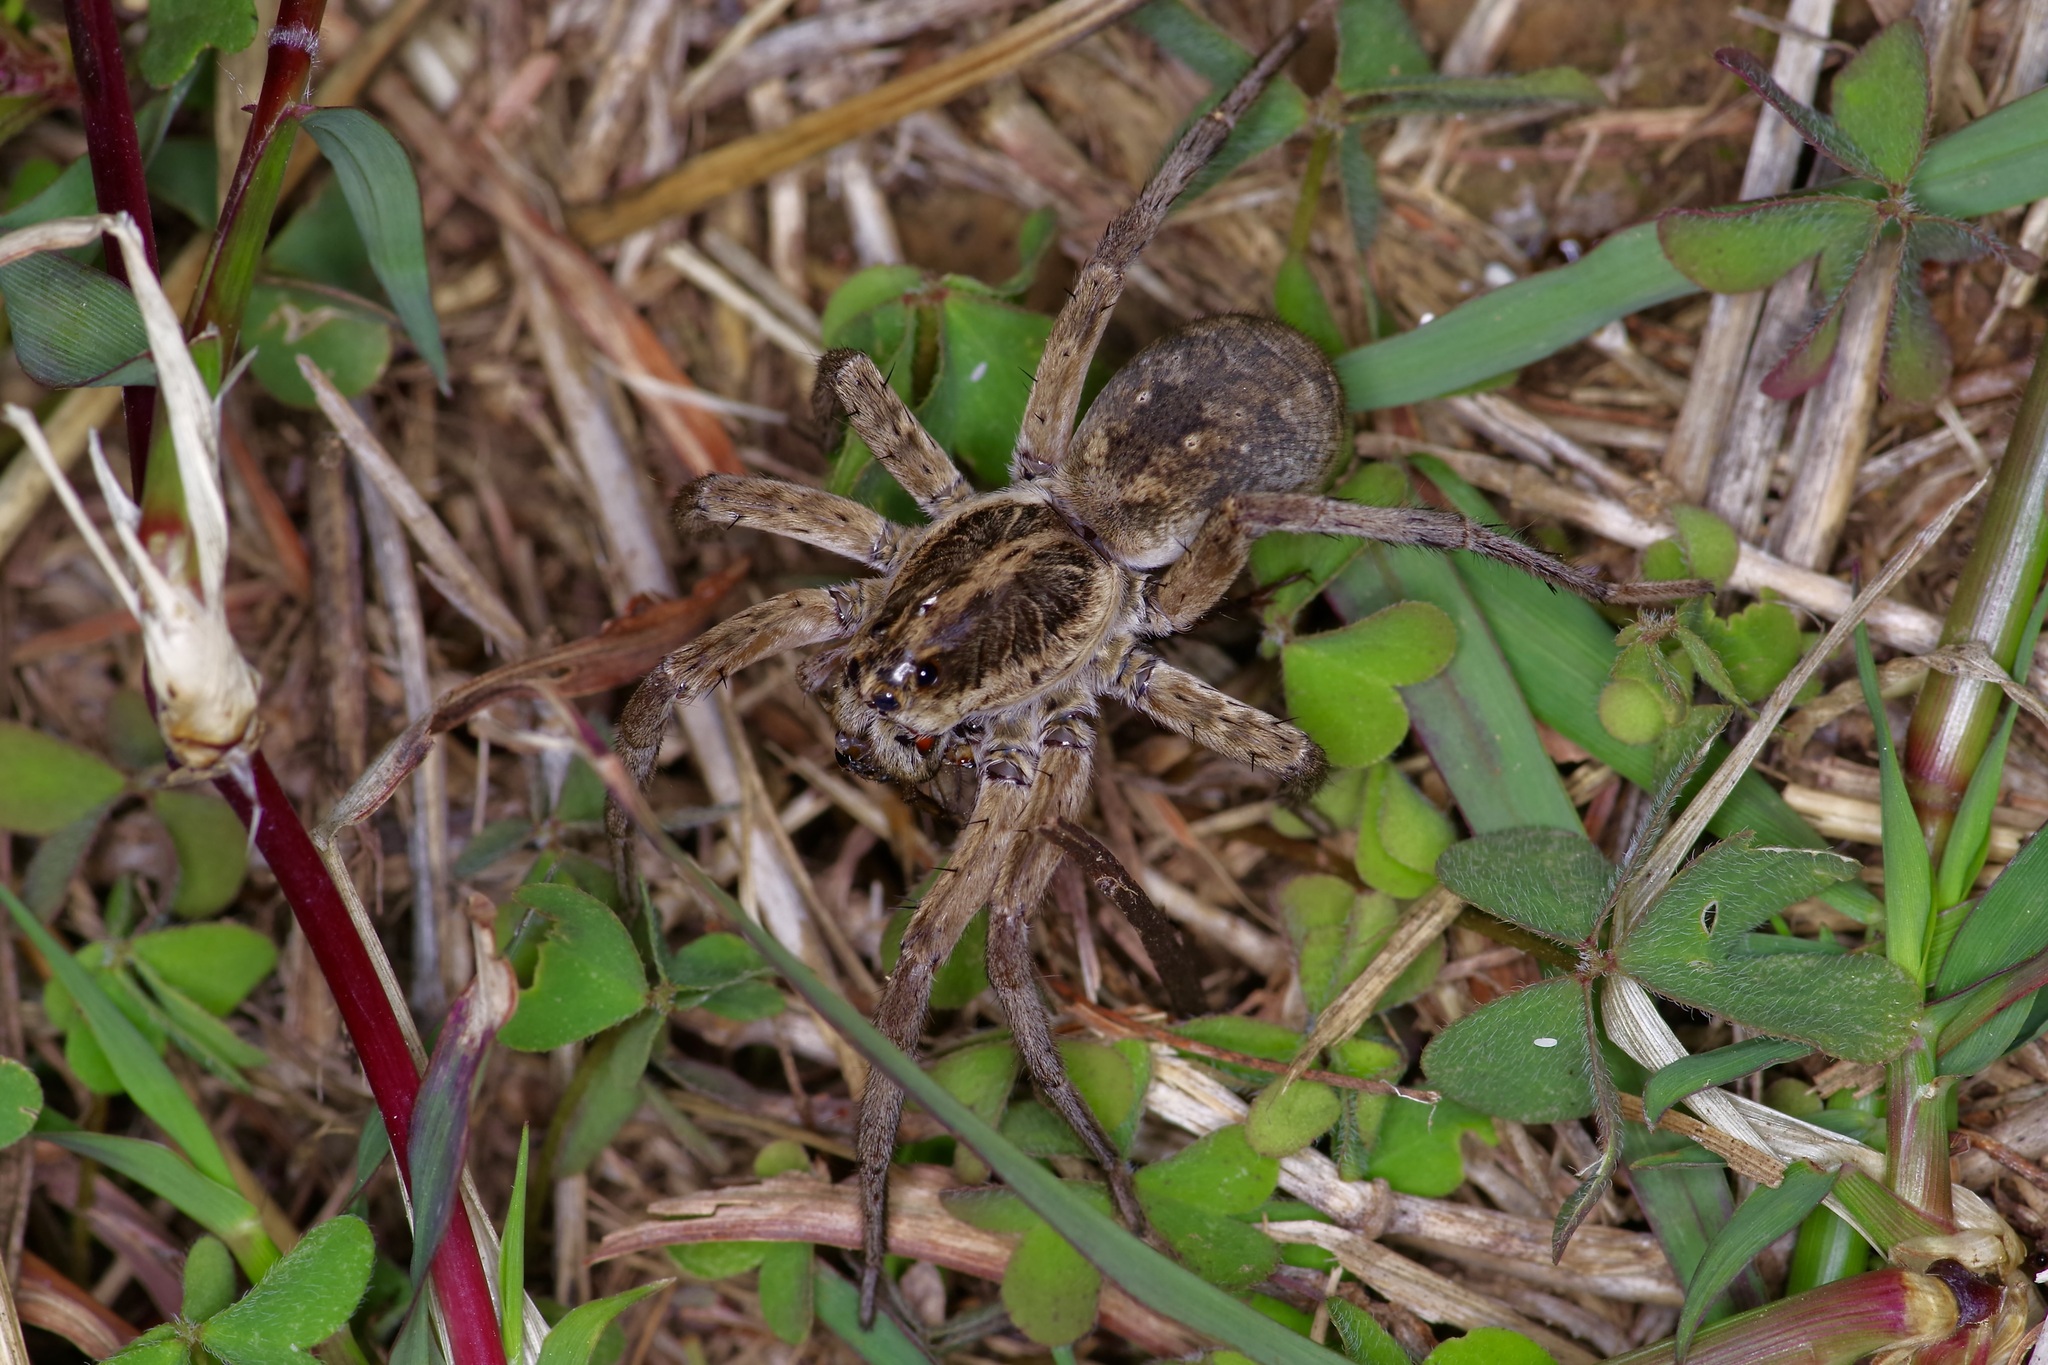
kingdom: Animalia
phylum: Arthropoda
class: Arachnida
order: Araneae
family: Lycosidae
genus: Hogna
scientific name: Hogna antelucana
